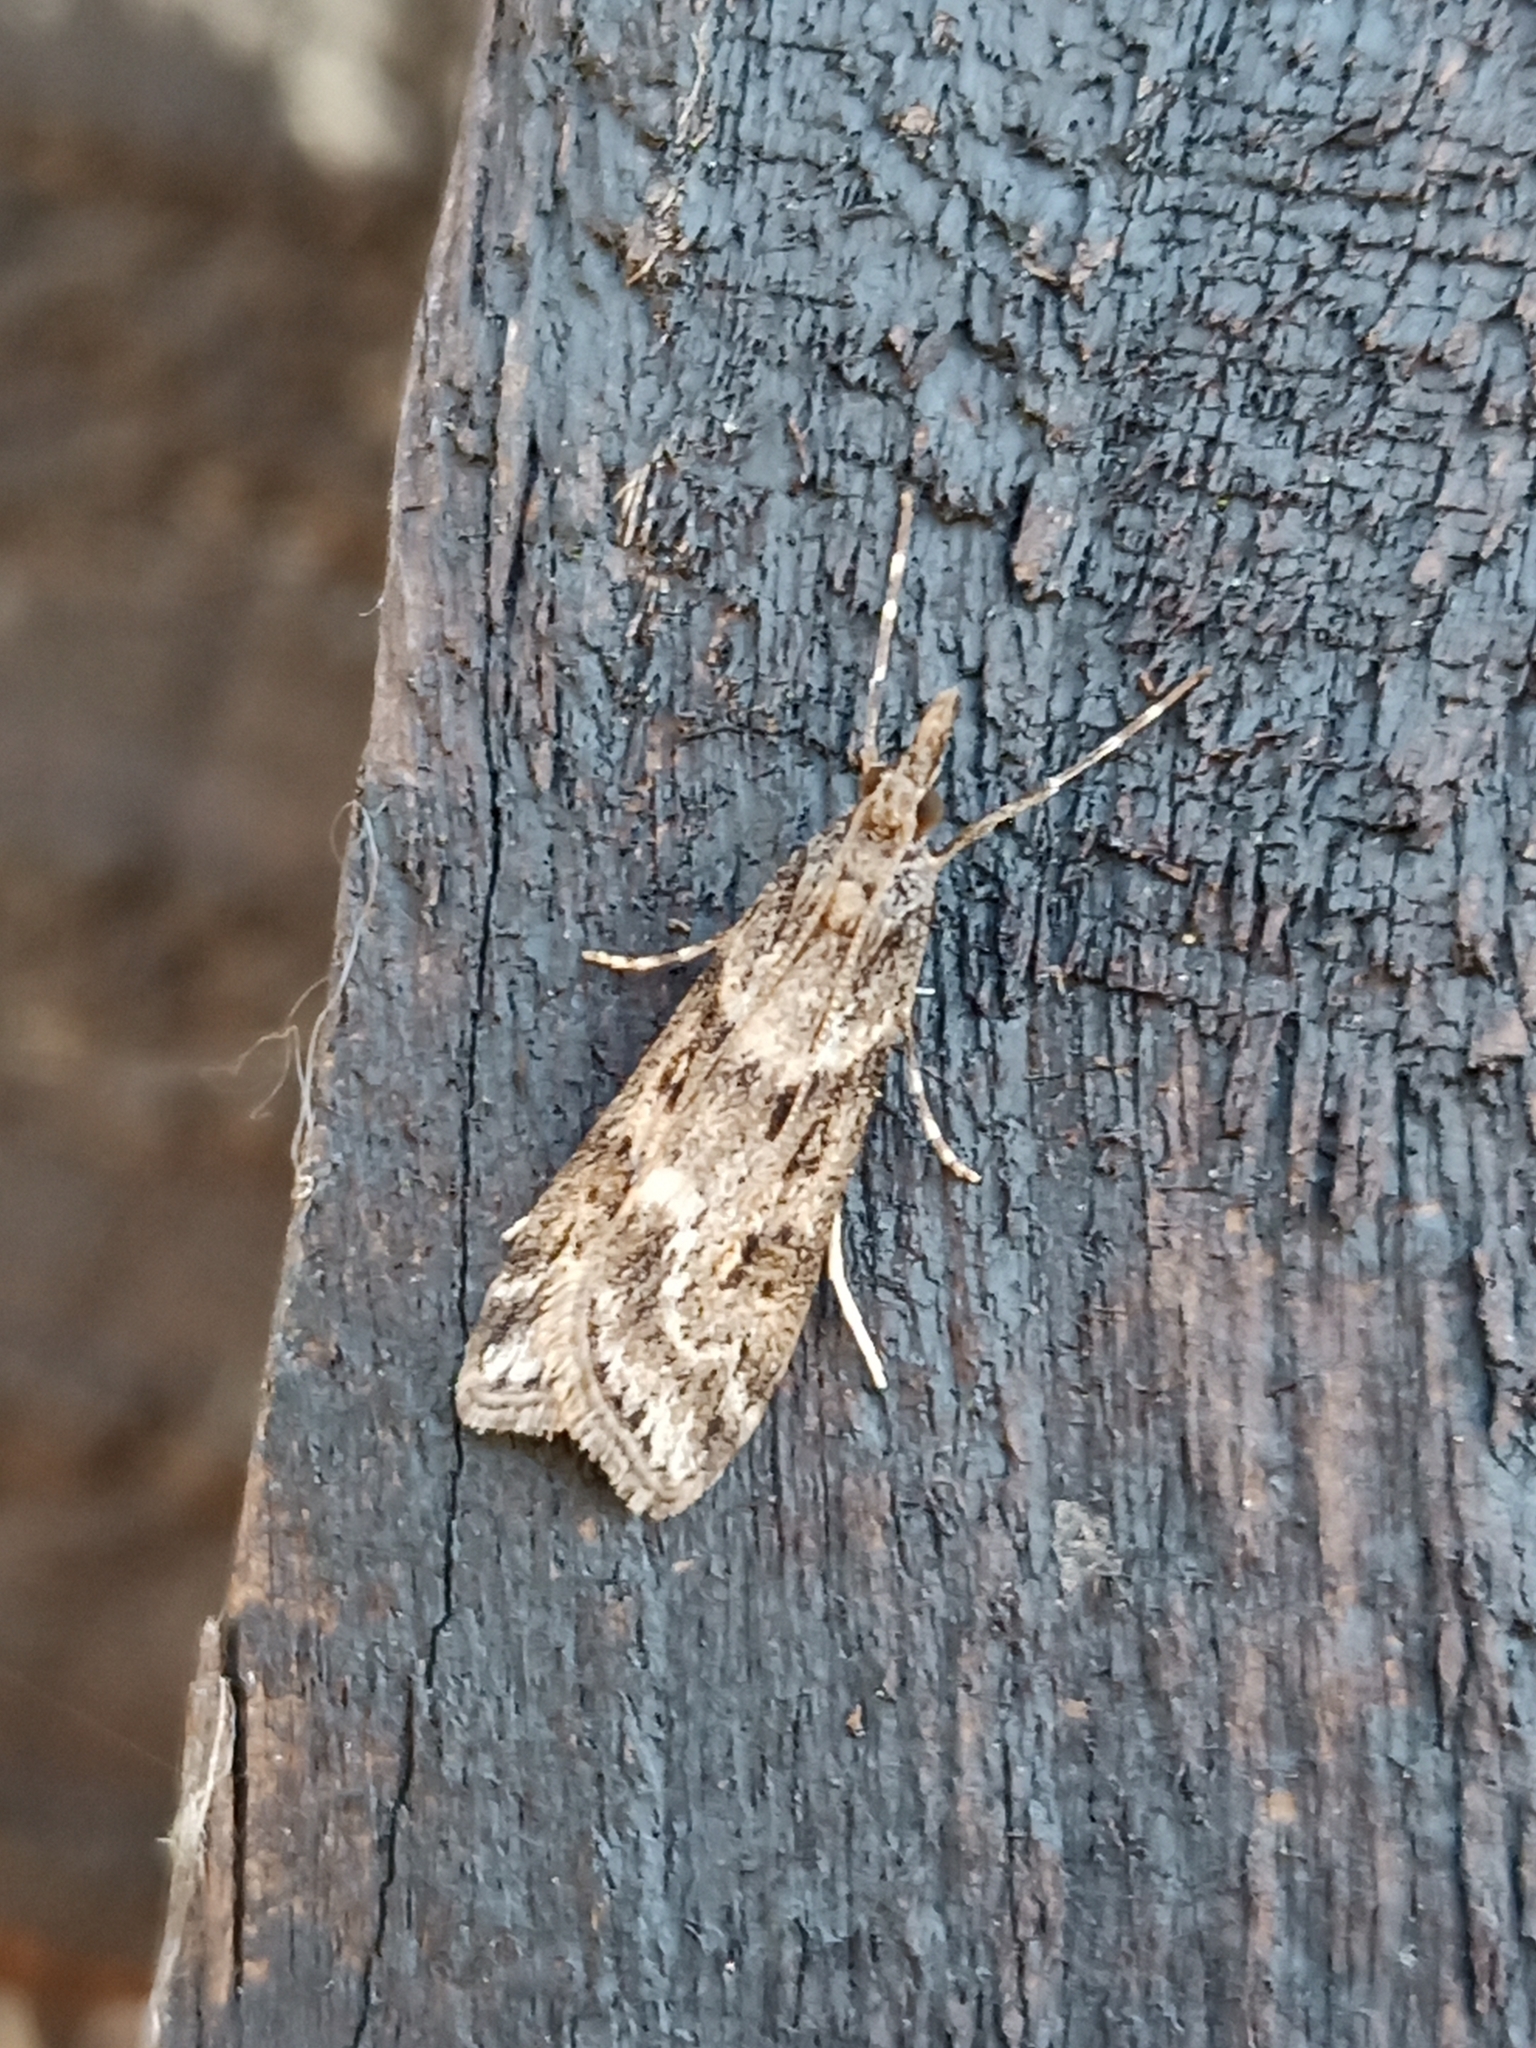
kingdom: Animalia
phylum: Arthropoda
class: Insecta
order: Lepidoptera
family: Crambidae
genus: Eudonia
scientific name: Eudonia angustea
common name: Narrow-winged grey
